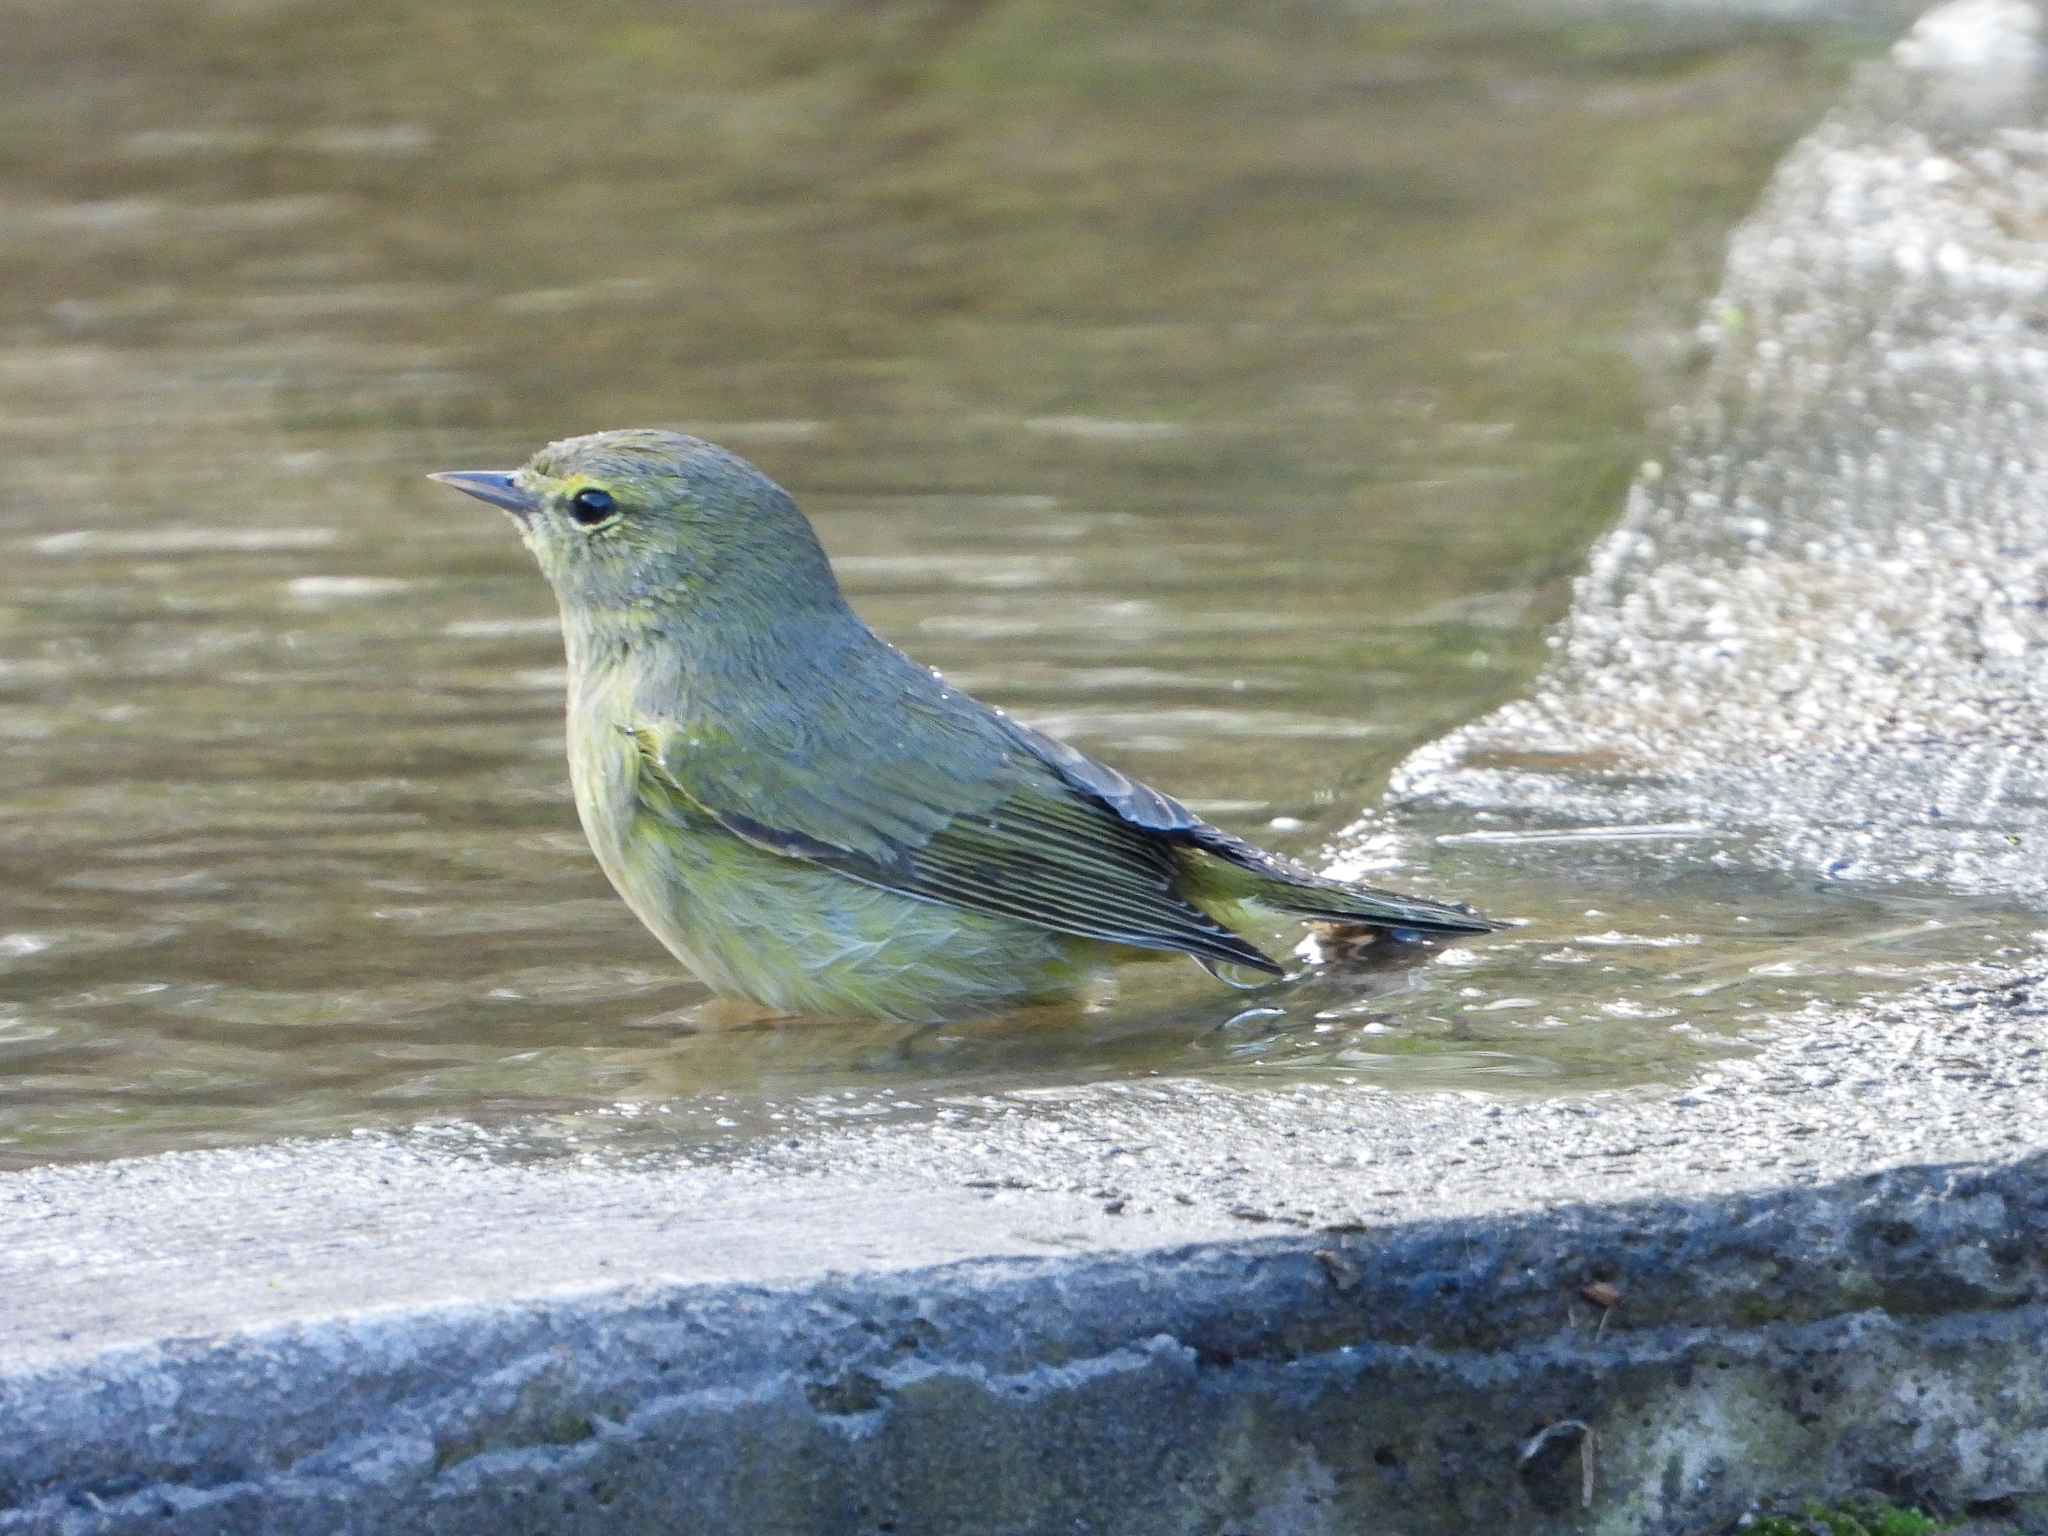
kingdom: Animalia
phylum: Chordata
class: Aves
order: Passeriformes
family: Parulidae
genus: Leiothlypis
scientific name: Leiothlypis celata
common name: Orange-crowned warbler
